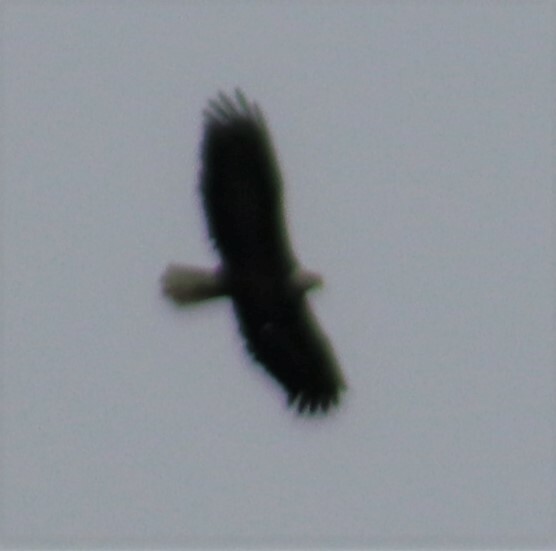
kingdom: Animalia
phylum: Chordata
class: Aves
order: Accipitriformes
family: Accipitridae
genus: Haliaeetus
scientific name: Haliaeetus leucocephalus
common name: Bald eagle
